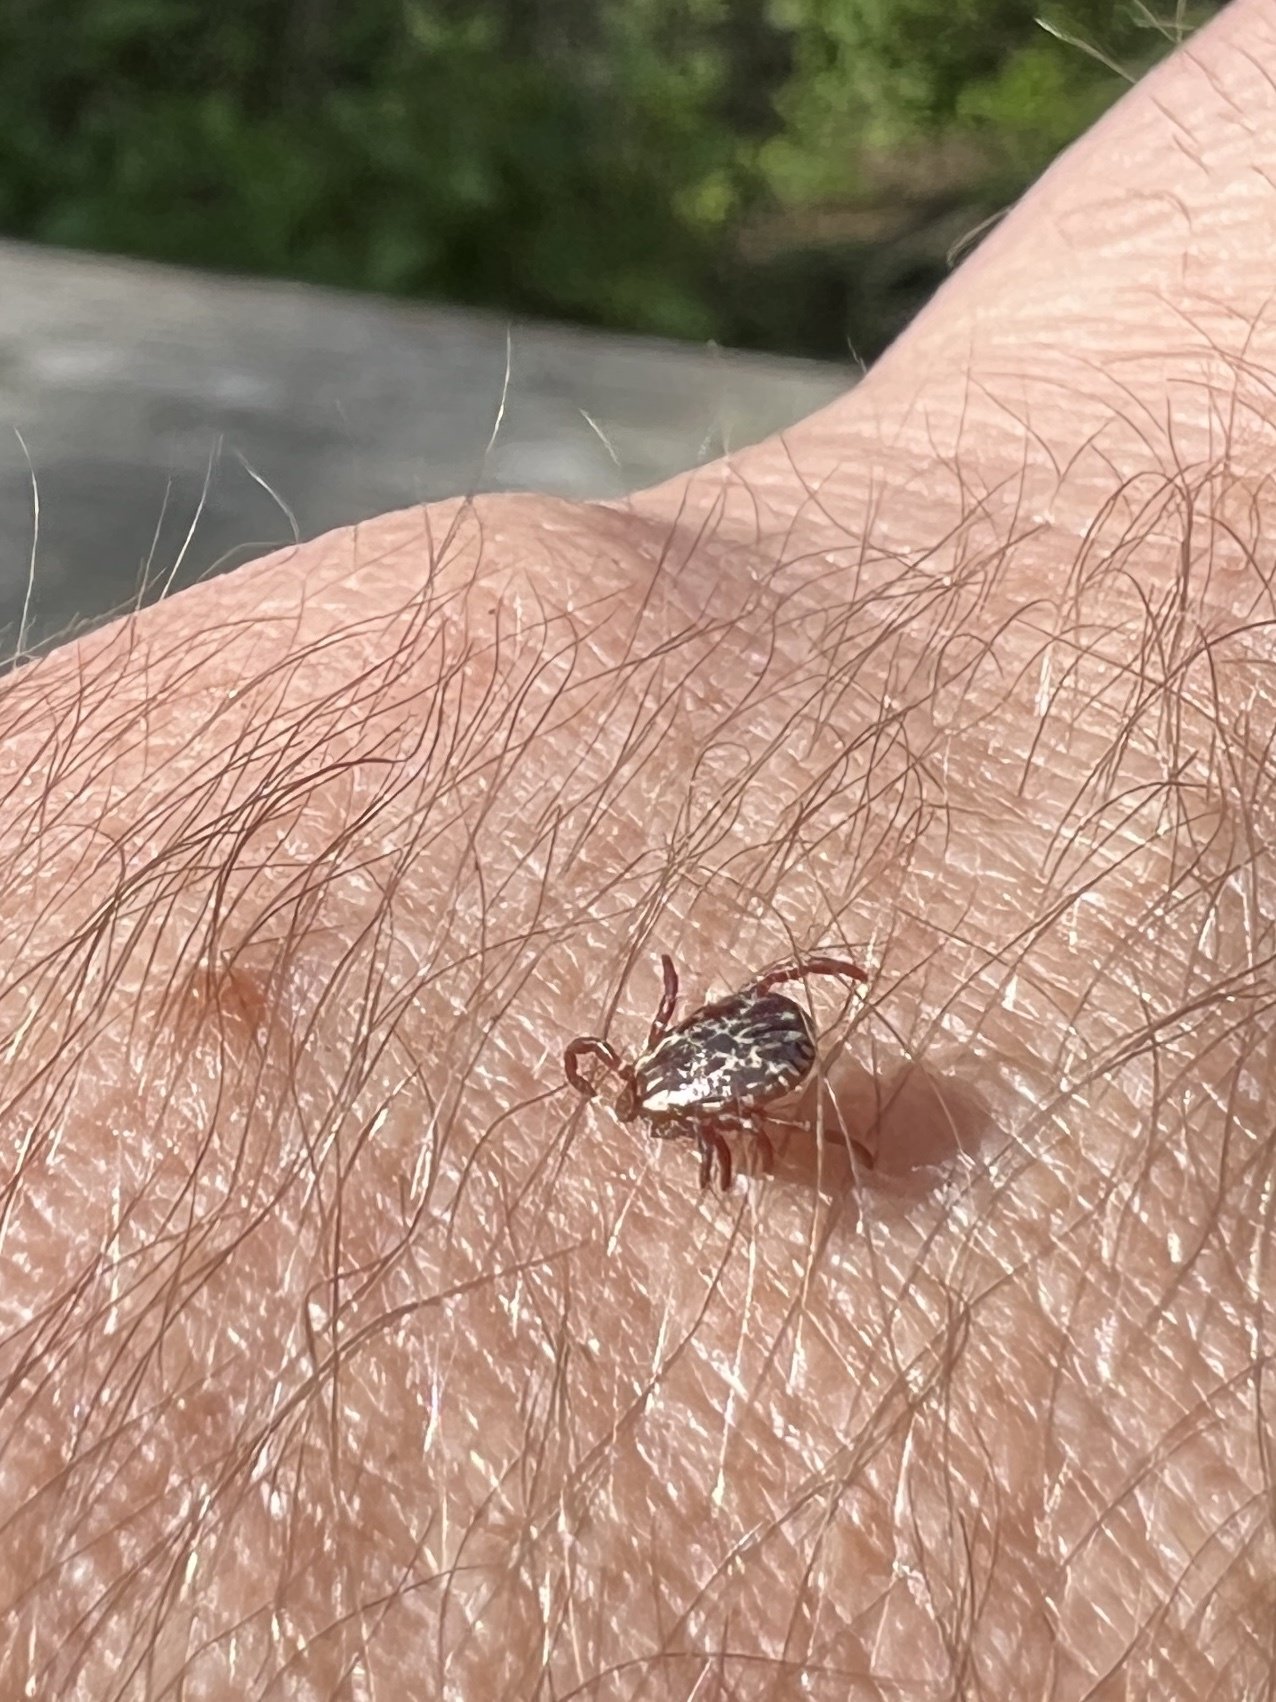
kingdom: Animalia
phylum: Arthropoda
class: Arachnida
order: Ixodida
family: Ixodidae
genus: Dermacentor
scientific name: Dermacentor variabilis
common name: American dog tick
